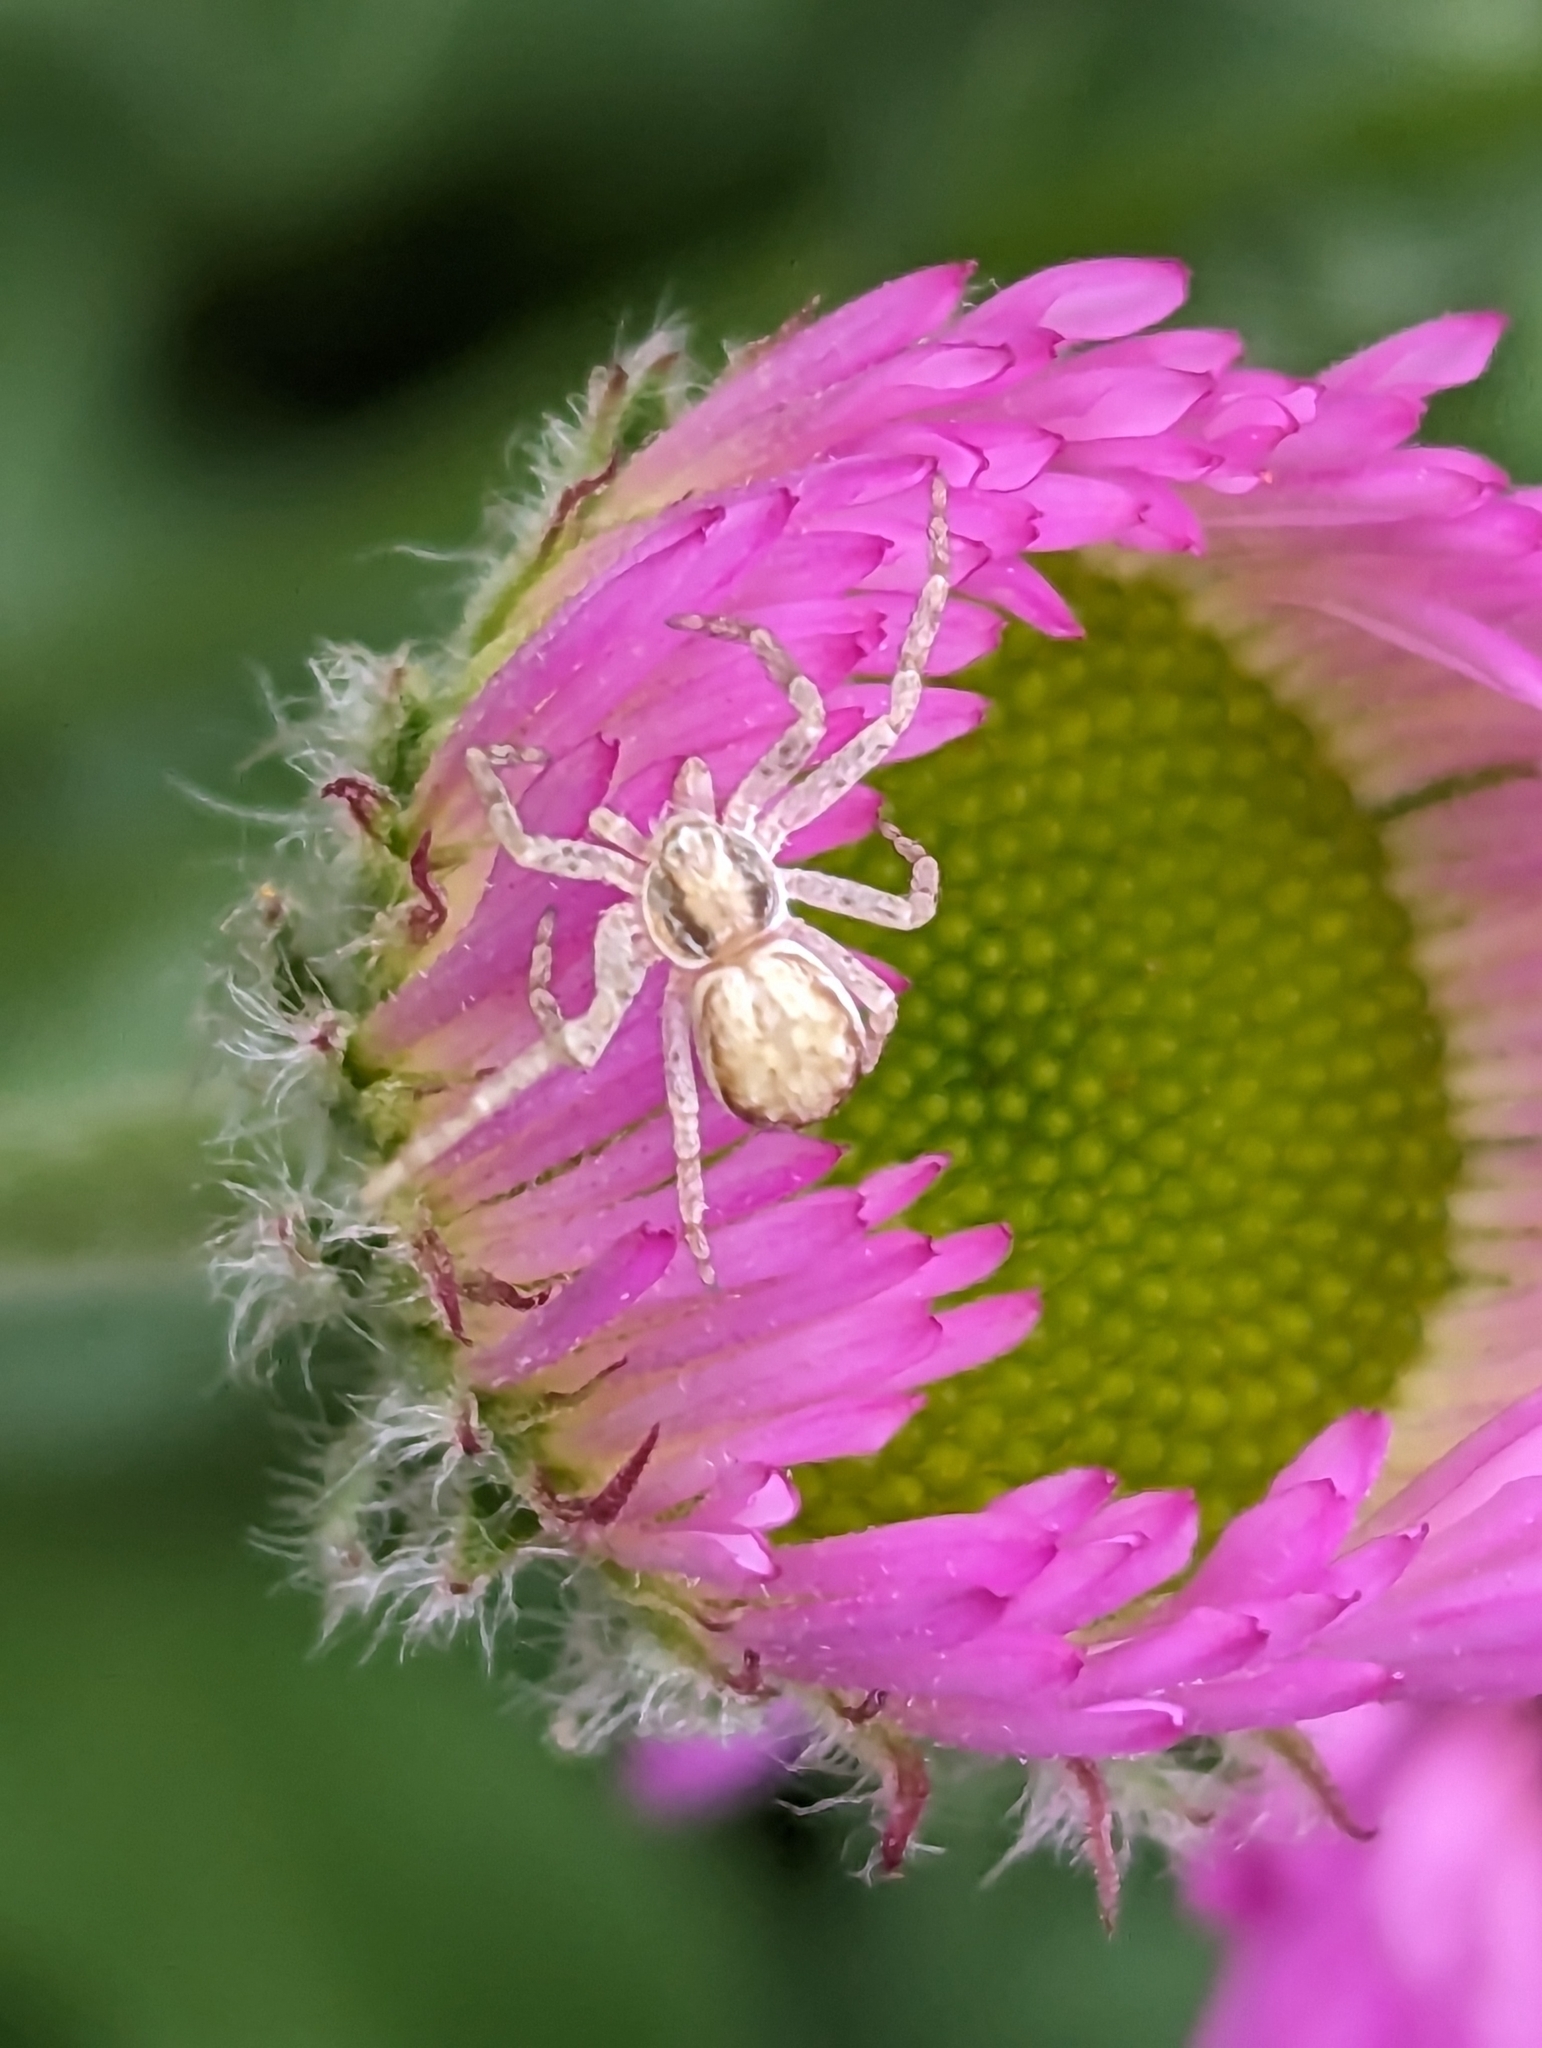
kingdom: Animalia
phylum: Arthropoda
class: Arachnida
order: Araneae
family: Philodromidae
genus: Philodromus
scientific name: Philodromus dispar
